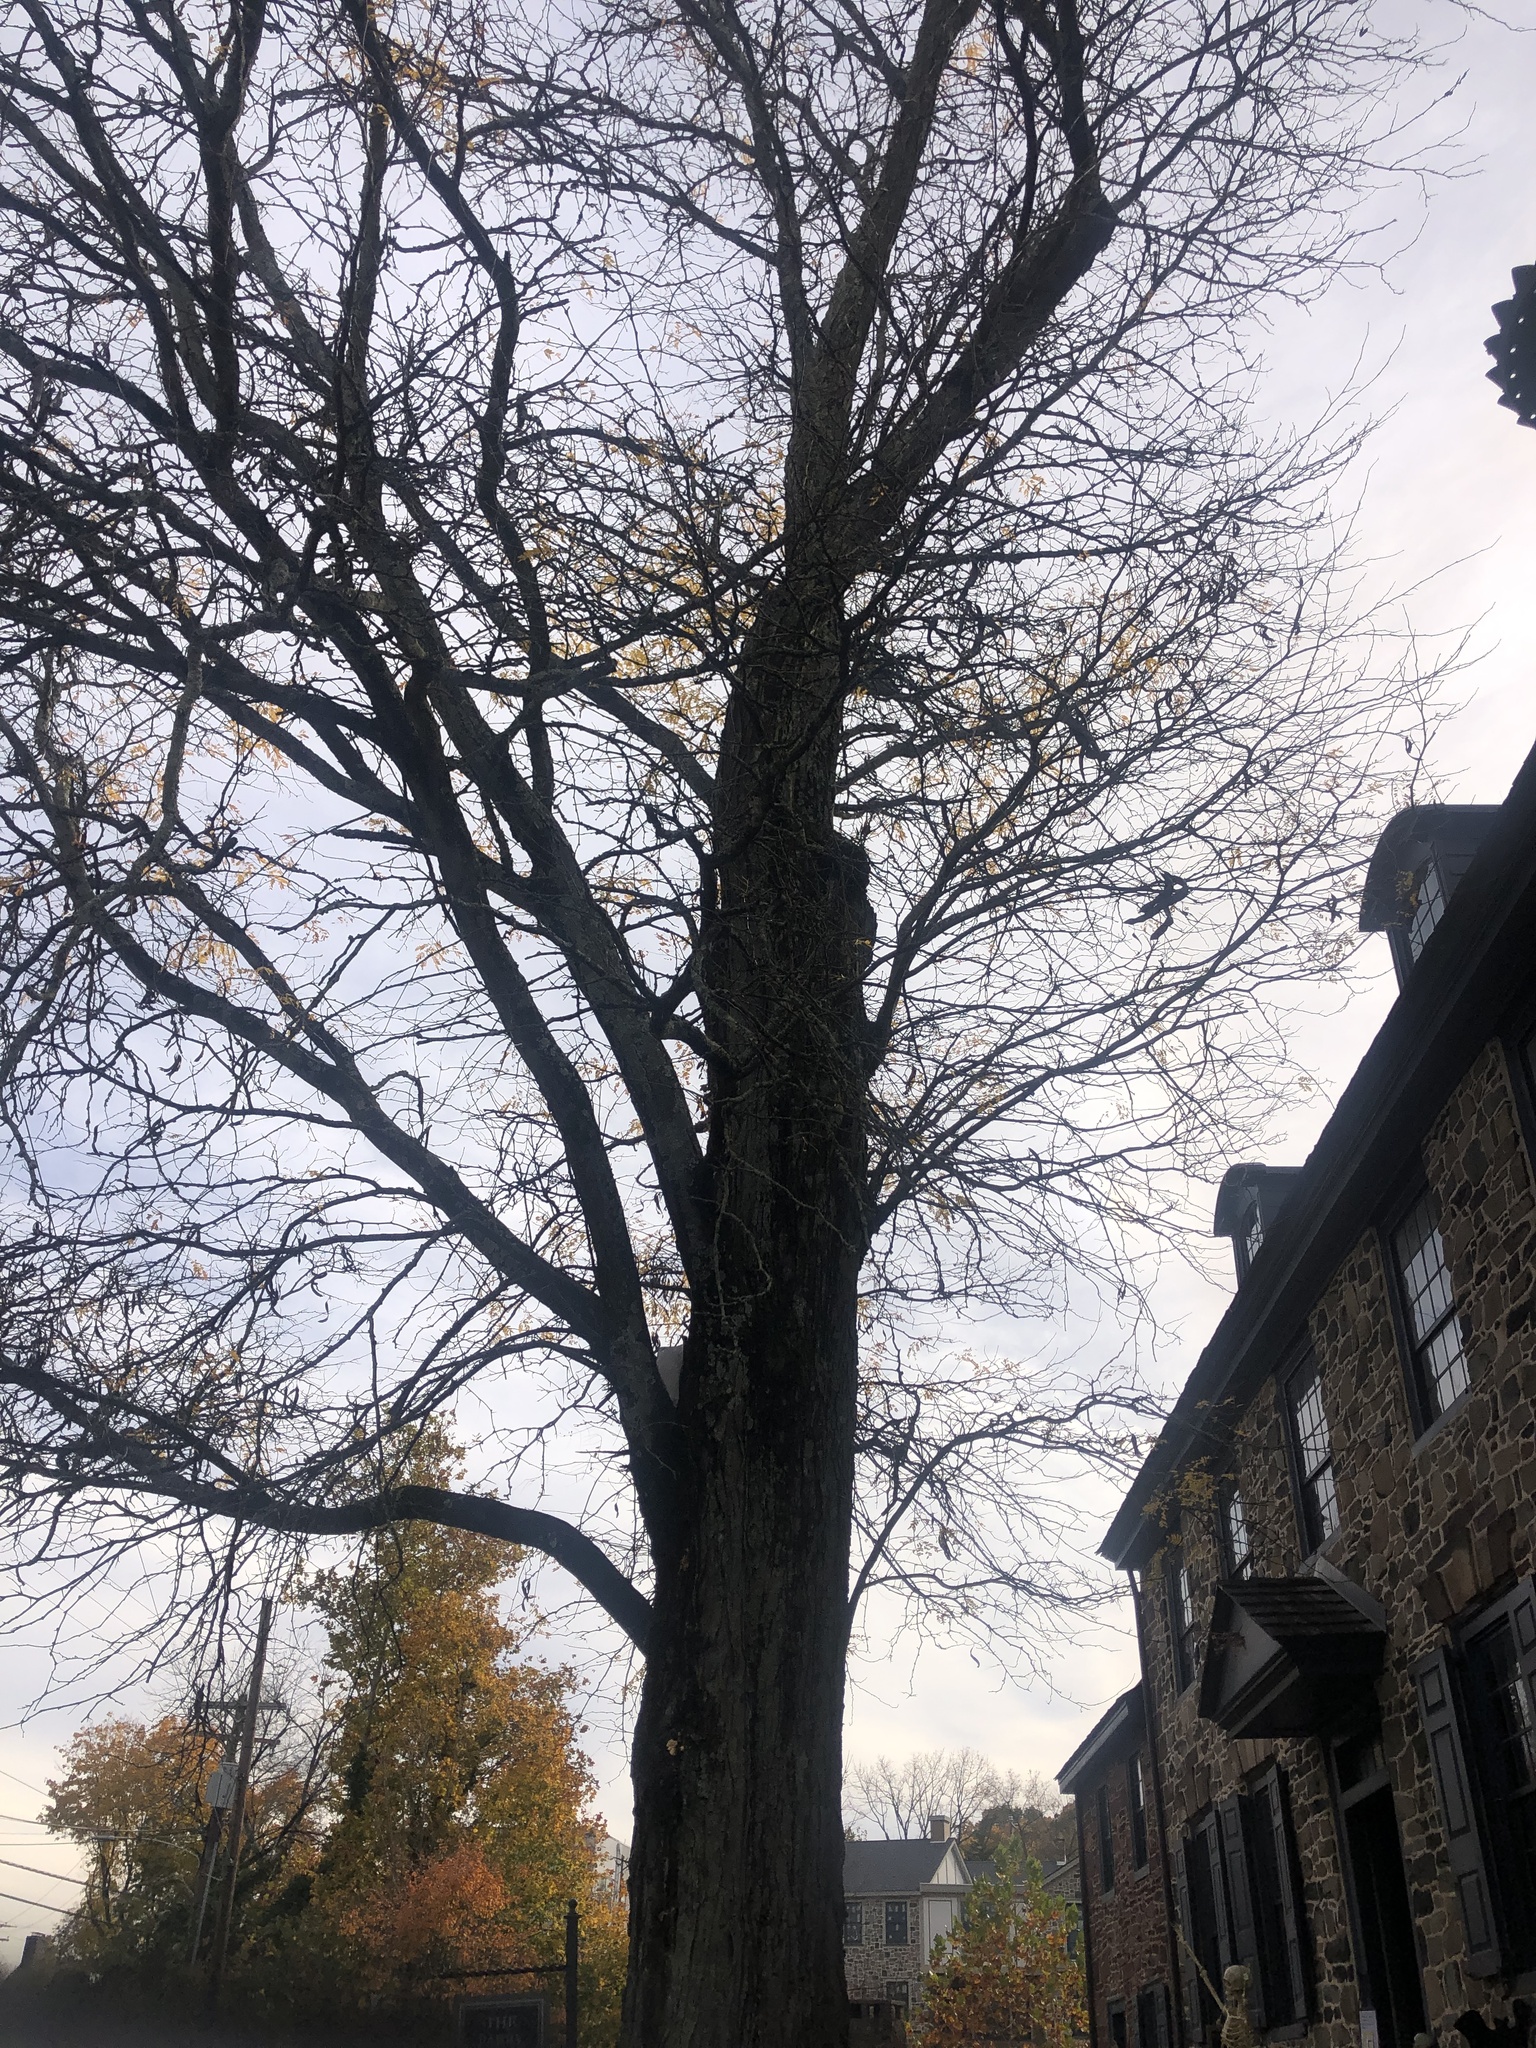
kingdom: Plantae
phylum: Tracheophyta
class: Magnoliopsida
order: Fabales
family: Fabaceae
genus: Gleditsia
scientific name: Gleditsia triacanthos
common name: Common honeylocust
